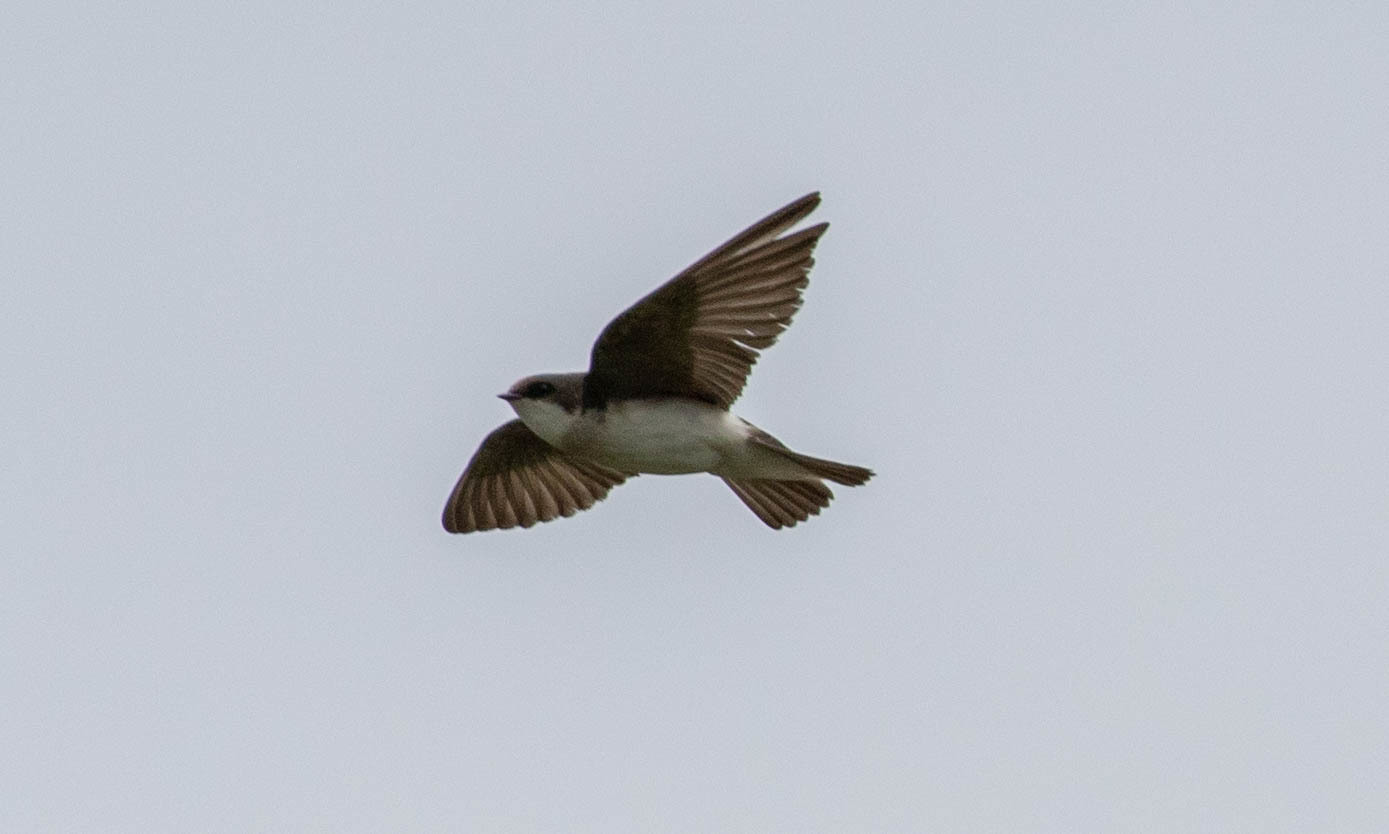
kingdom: Animalia
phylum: Chordata
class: Aves
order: Passeriformes
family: Hirundinidae
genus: Riparia
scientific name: Riparia riparia
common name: Sand martin
